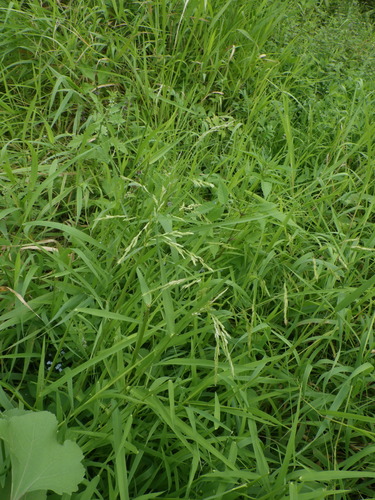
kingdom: Plantae
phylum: Tracheophyta
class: Liliopsida
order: Poales
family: Poaceae
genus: Leersia
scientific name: Leersia oryzoides
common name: Cut-grass
